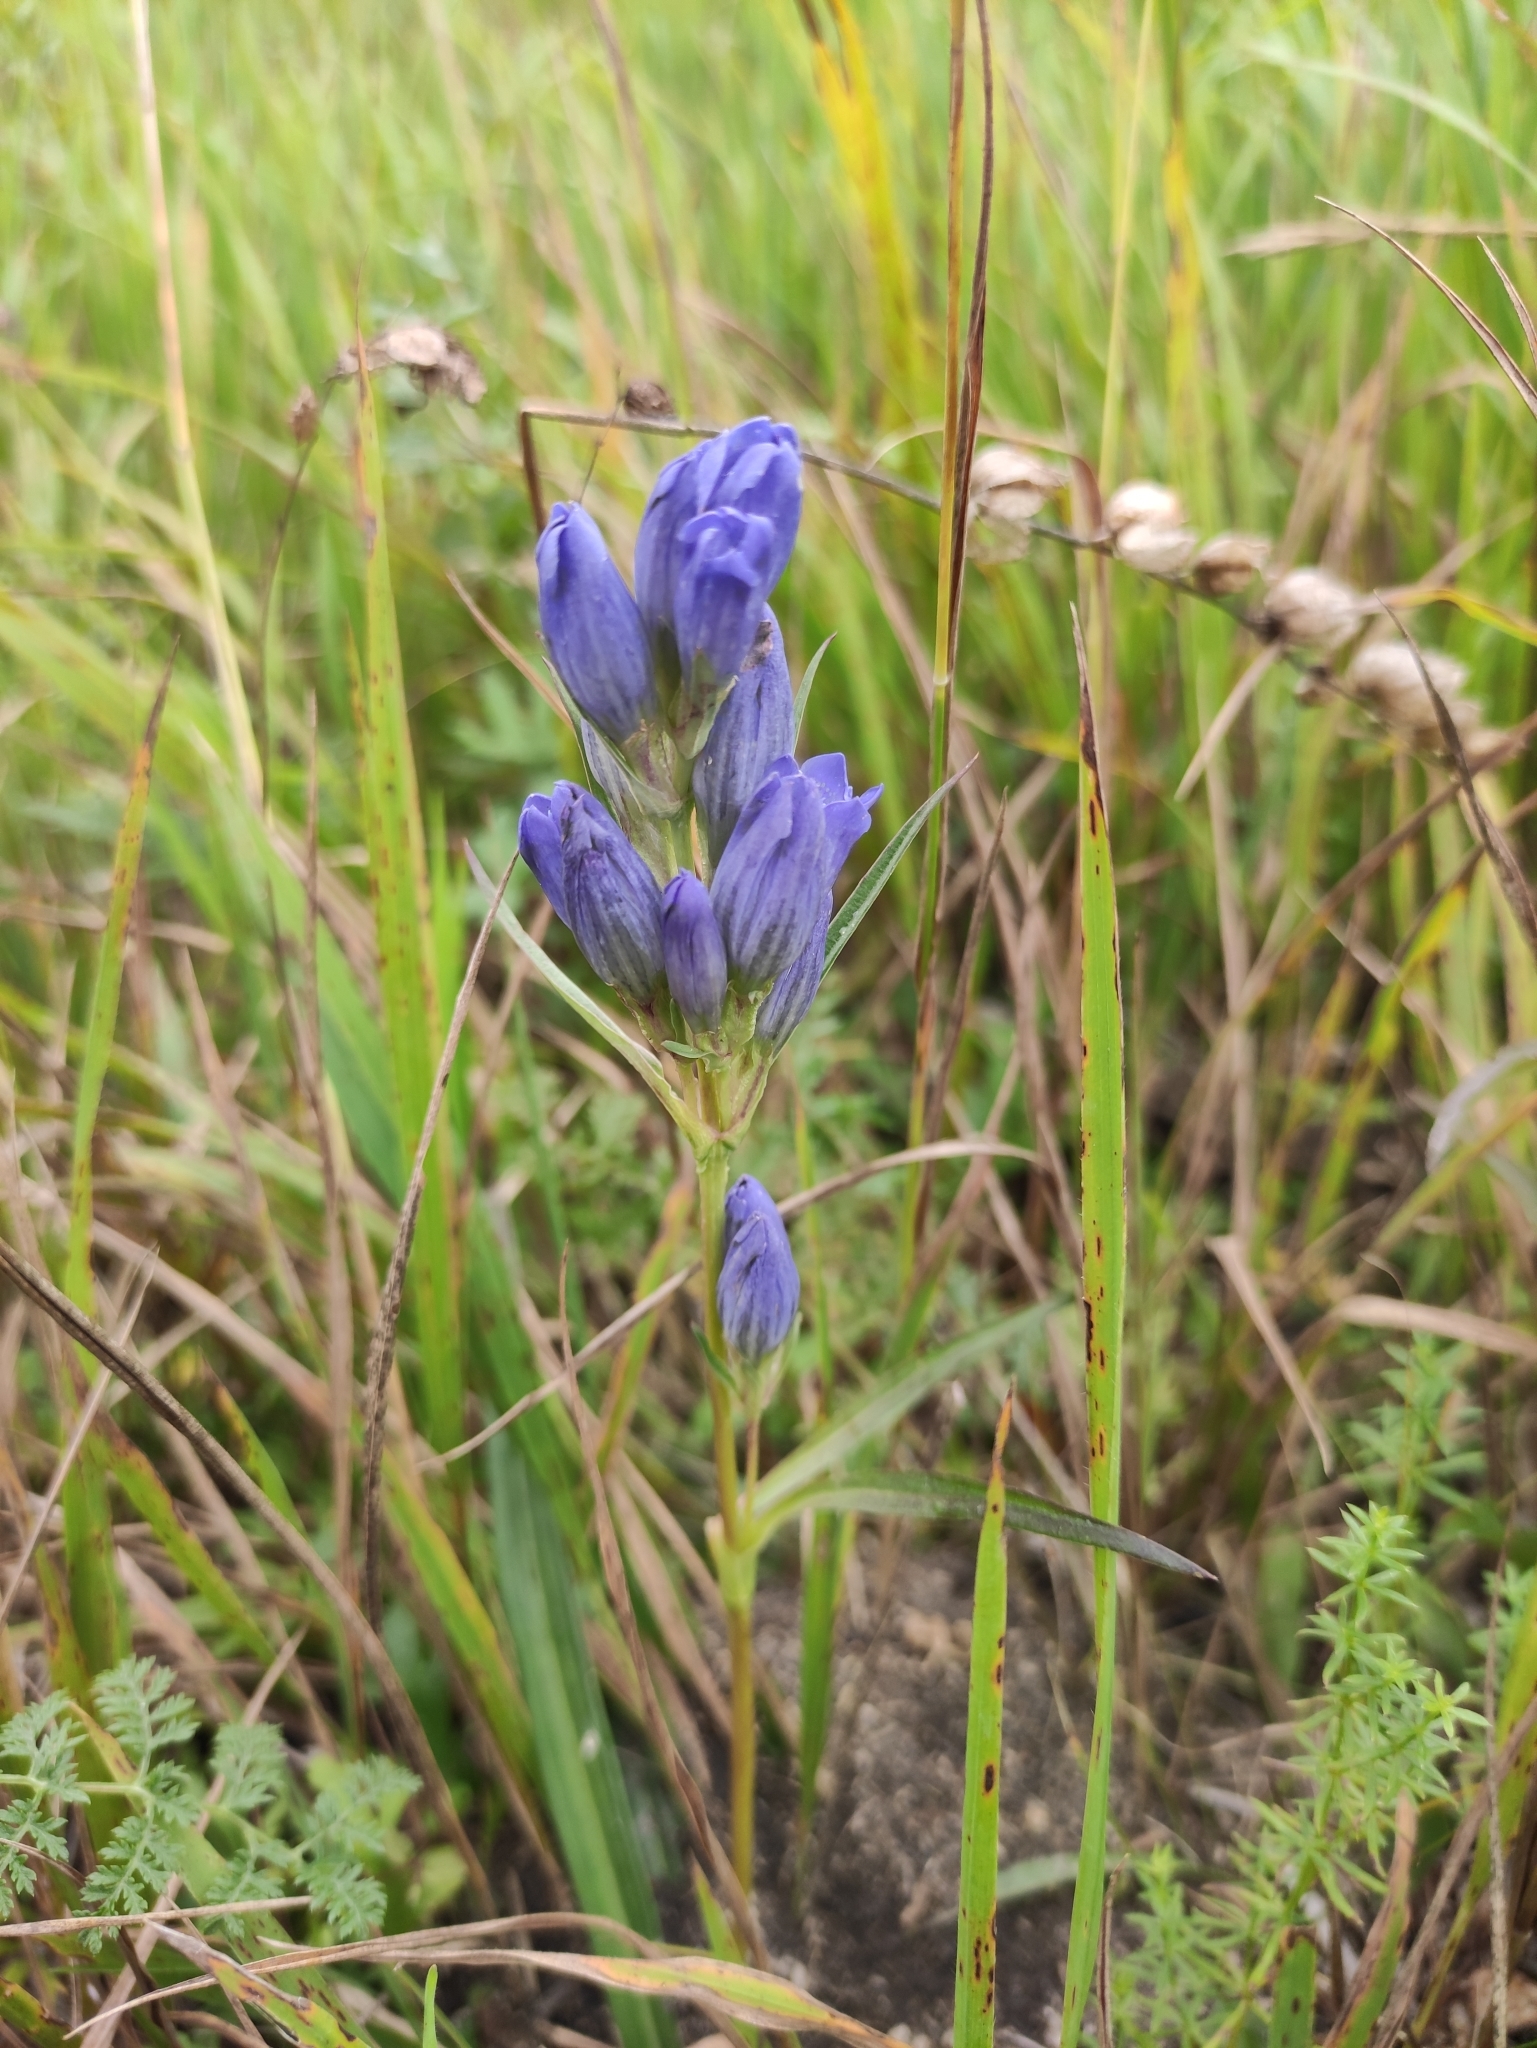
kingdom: Plantae
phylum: Tracheophyta
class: Magnoliopsida
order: Gentianales
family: Gentianaceae
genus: Gentiana
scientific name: Gentiana decumbens
